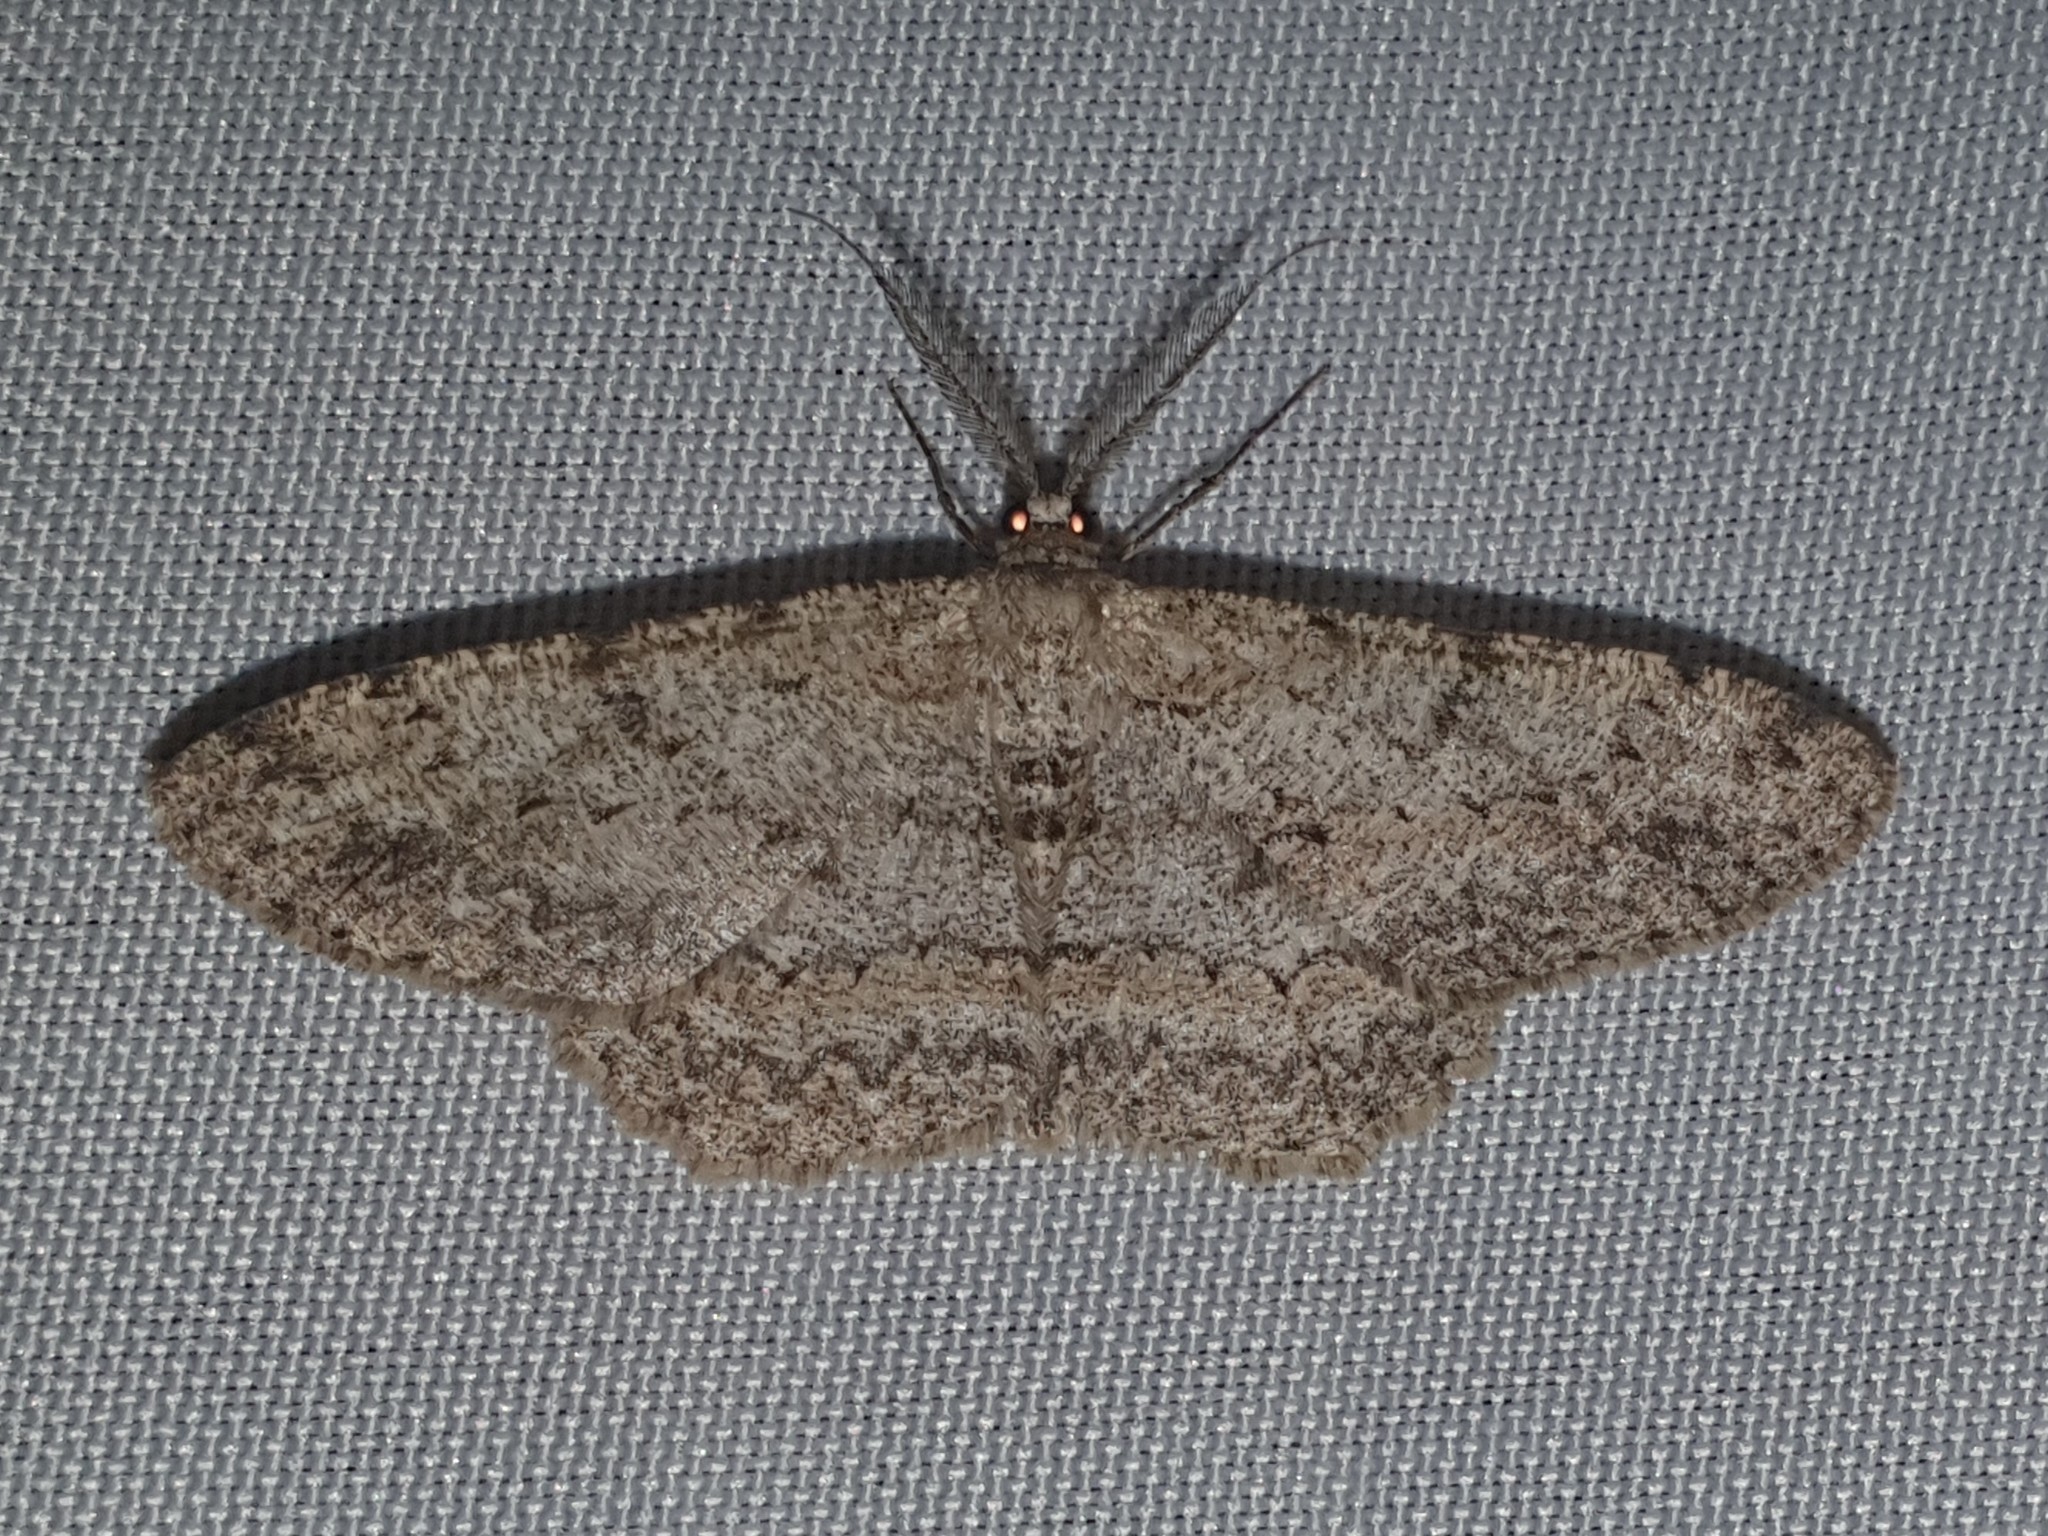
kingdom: Animalia
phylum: Arthropoda
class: Insecta
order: Lepidoptera
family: Geometridae
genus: Hypomecis
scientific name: Hypomecis punctinalis
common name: Pale oak beauty
